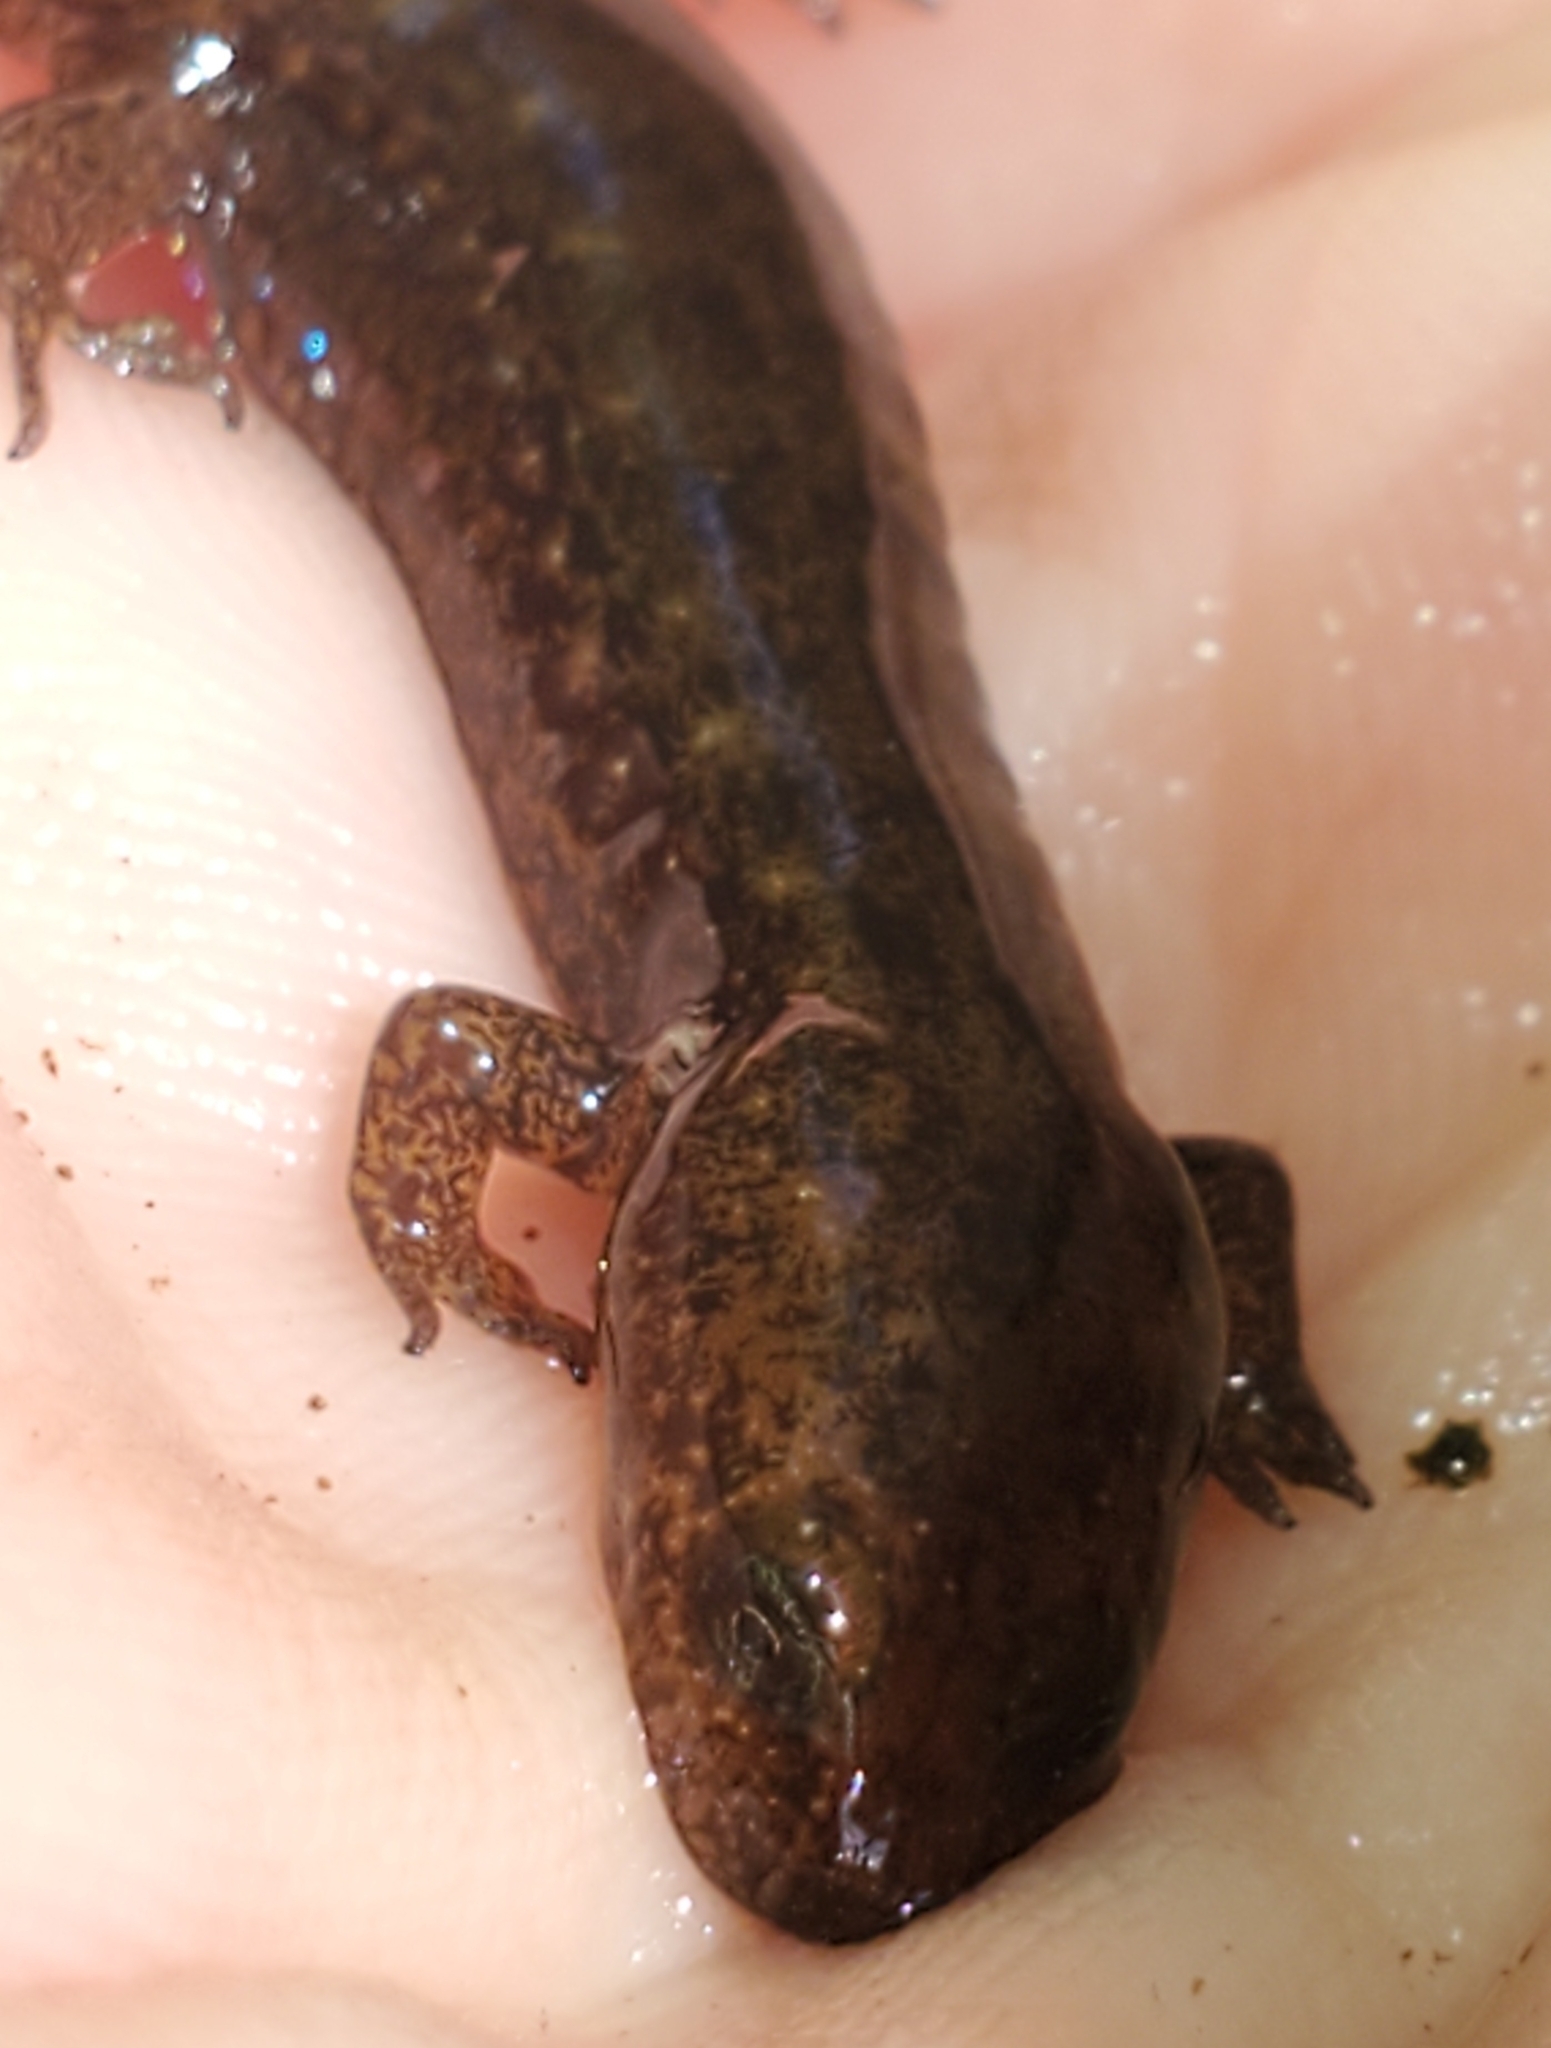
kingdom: Animalia
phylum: Chordata
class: Amphibia
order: Caudata
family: Plethodontidae
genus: Desmognathus
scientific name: Desmognathus
